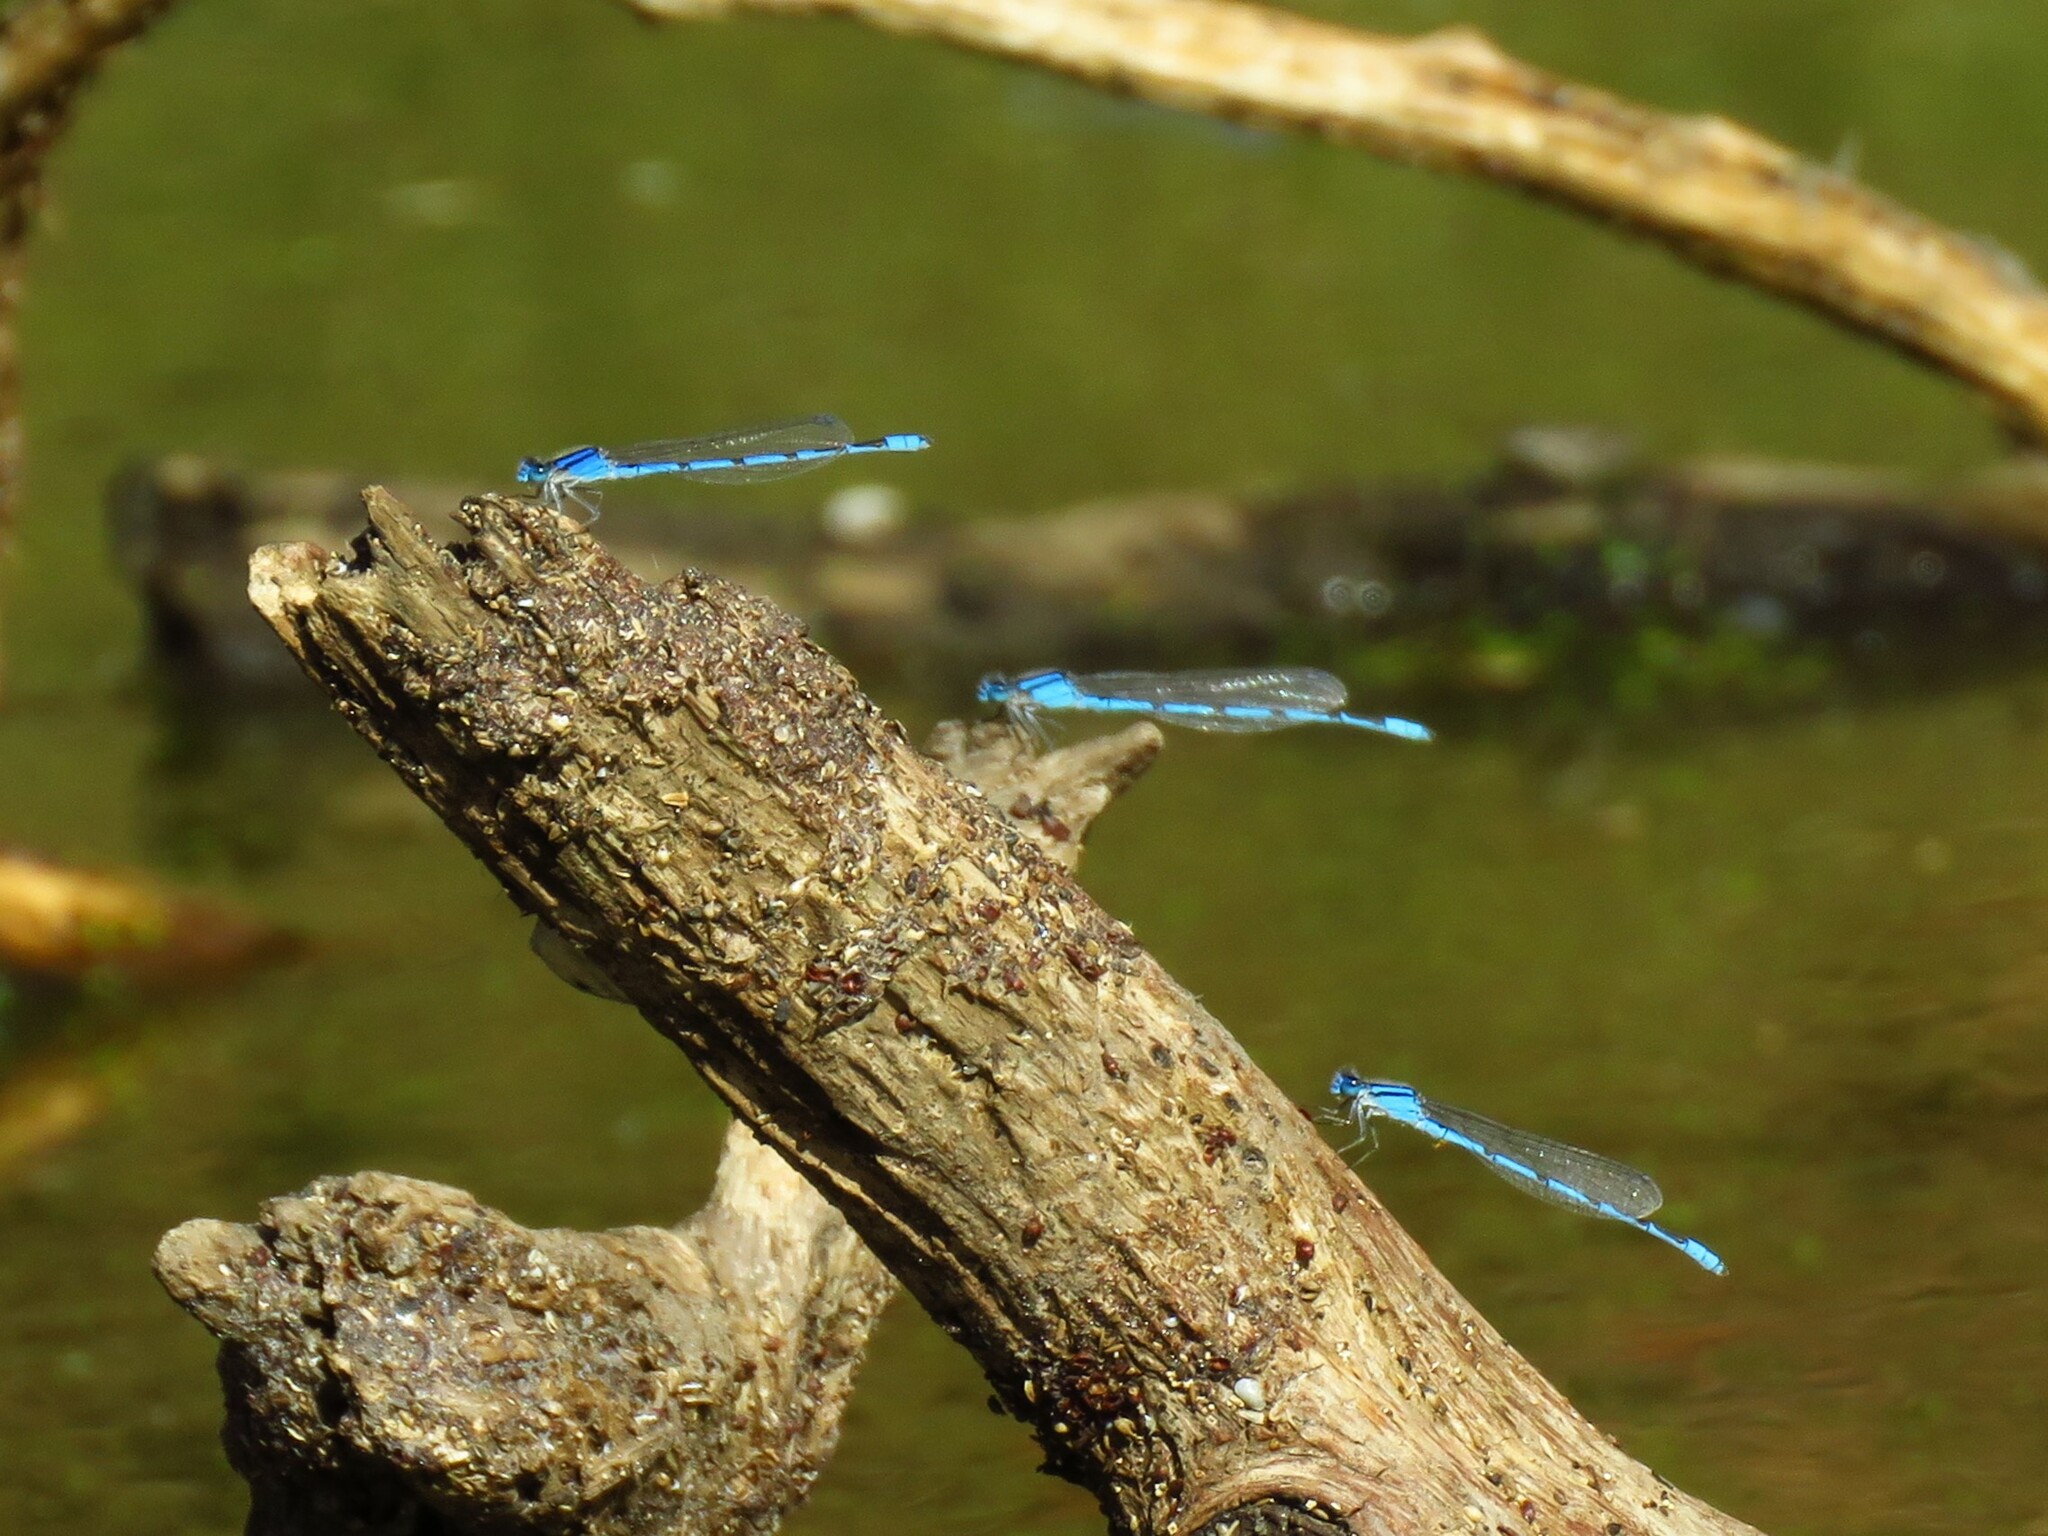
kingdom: Animalia
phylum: Arthropoda
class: Insecta
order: Odonata
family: Coenagrionidae
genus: Enallagma
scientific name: Enallagma civile
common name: Damselfly
